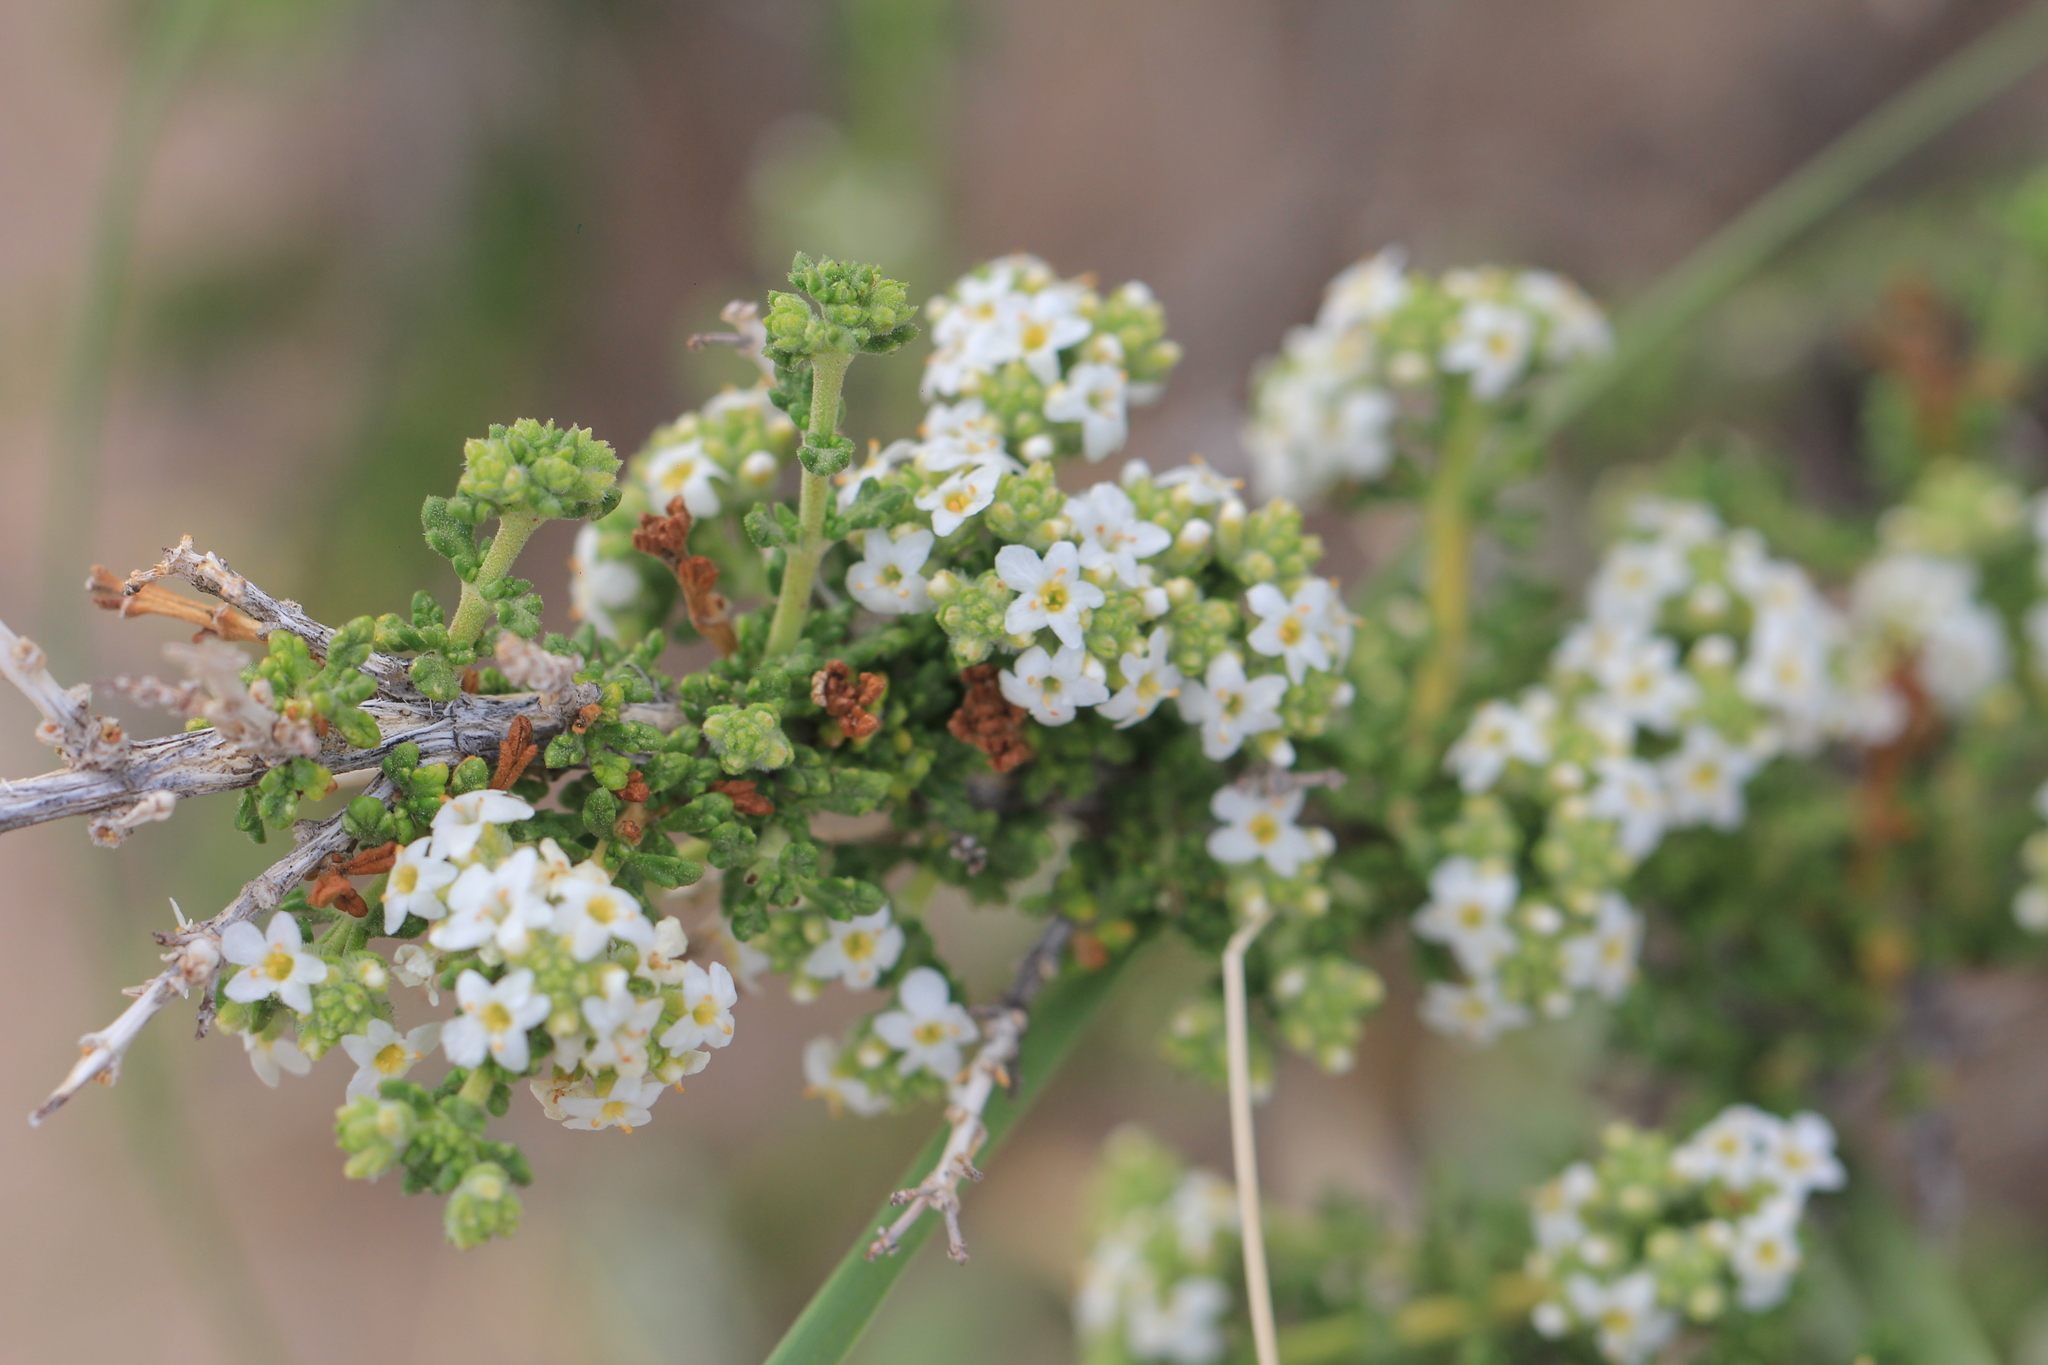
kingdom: Plantae
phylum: Tracheophyta
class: Magnoliopsida
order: Lamiales
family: Verbenaceae
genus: Acantholippia
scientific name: Acantholippia seriphioides
